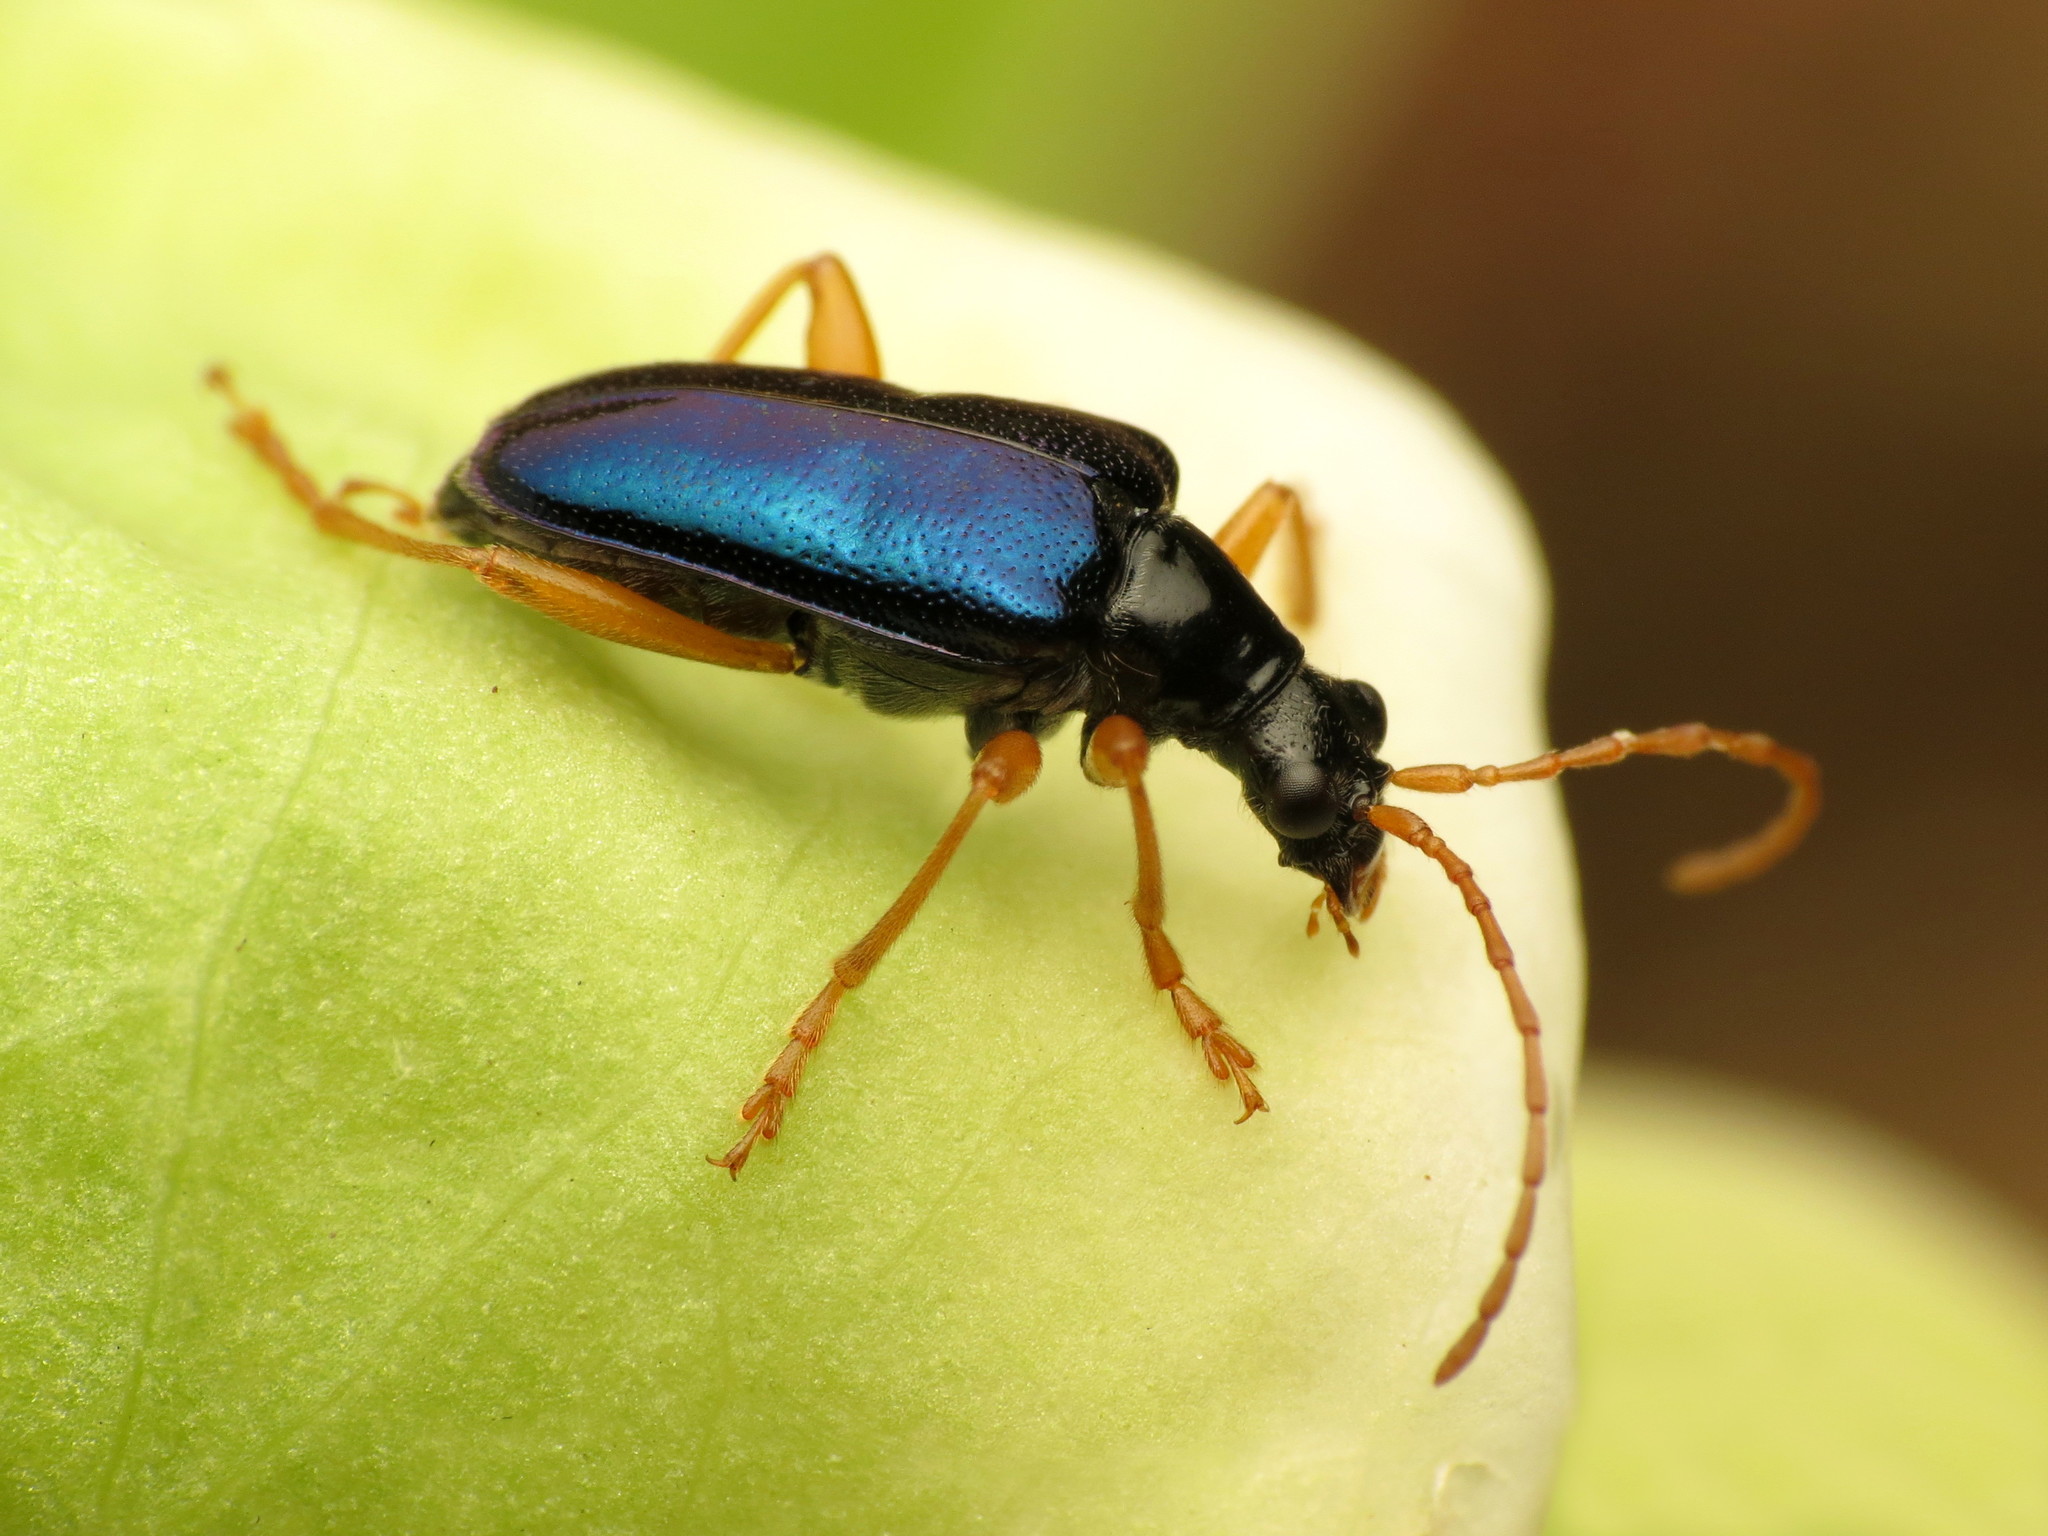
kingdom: Animalia
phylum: Arthropoda
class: Insecta
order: Coleoptera
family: Cerambycidae
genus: Gaurotes
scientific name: Gaurotes cyanipennis
